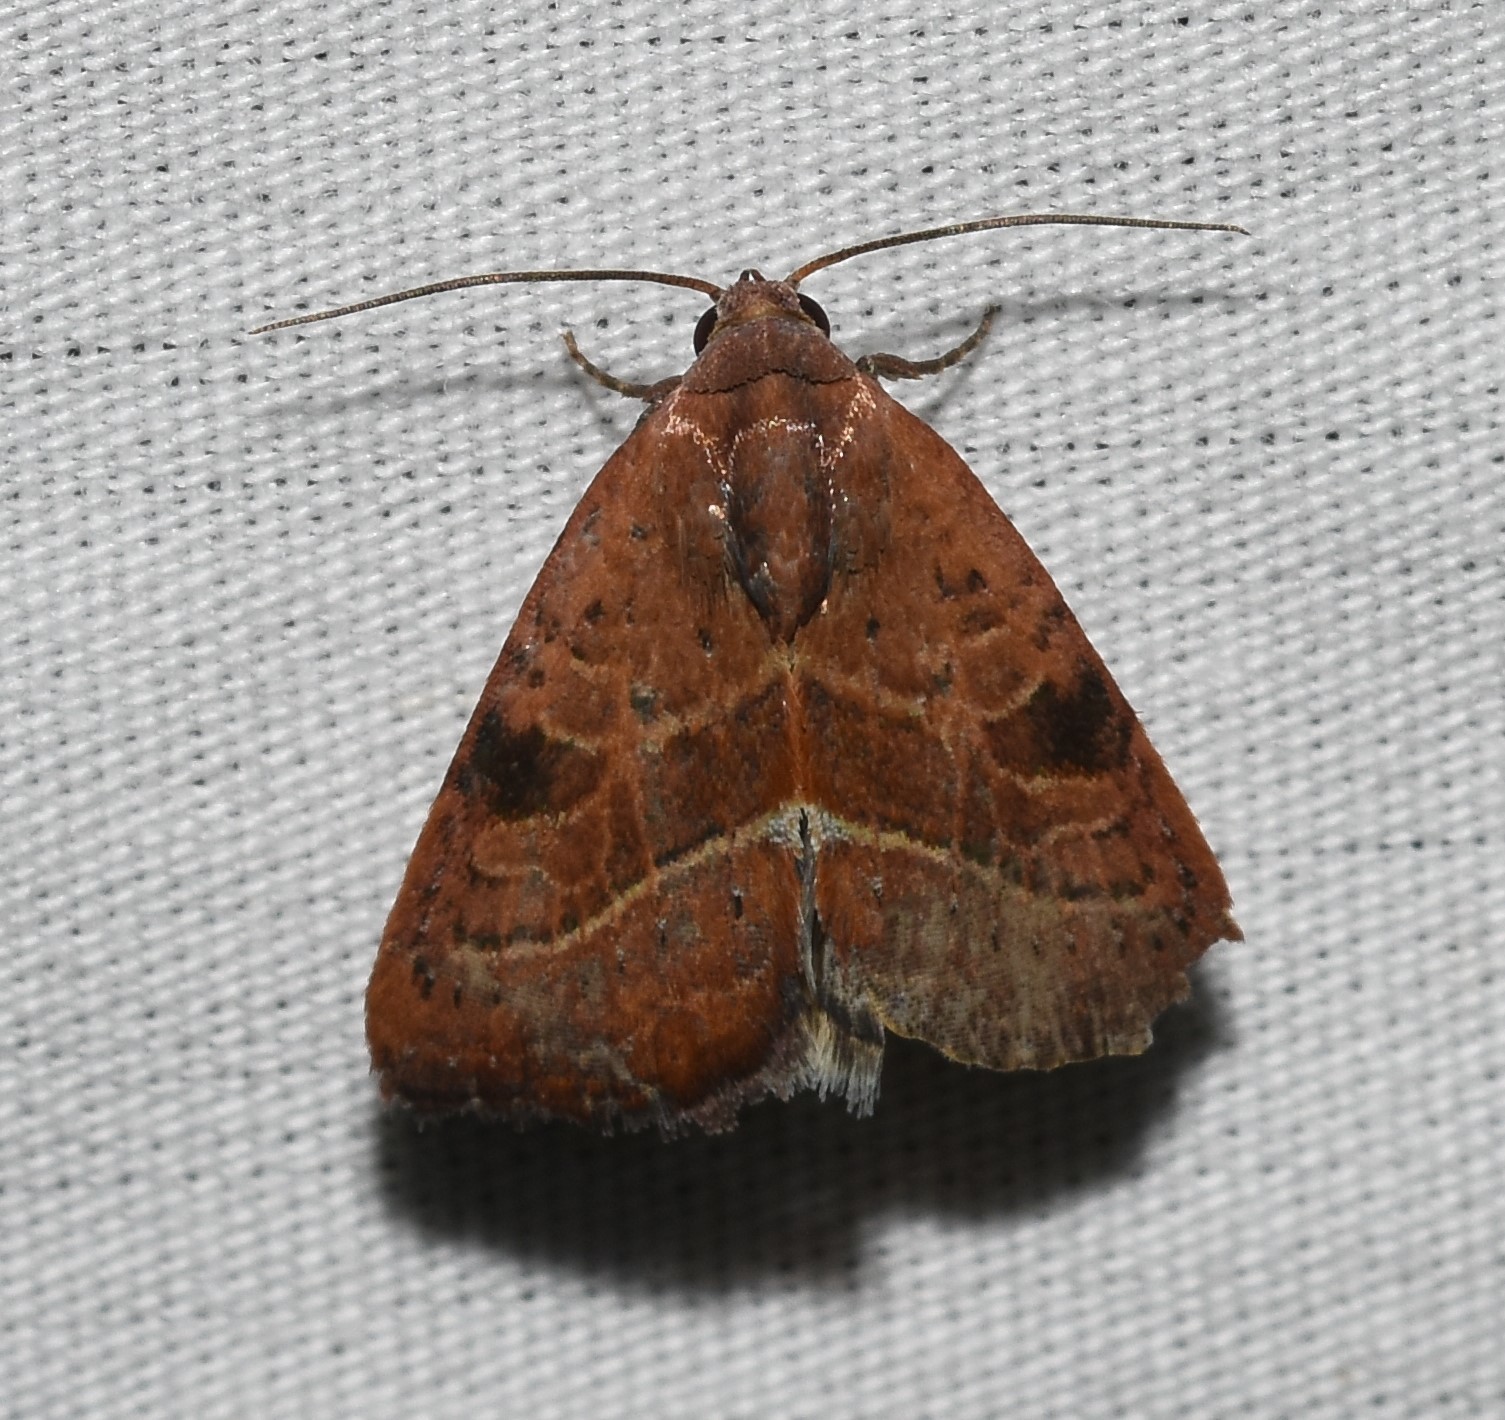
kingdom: Animalia
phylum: Arthropoda
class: Insecta
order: Lepidoptera
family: Noctuidae
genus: Galgula
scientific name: Galgula partita
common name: Wedgeling
